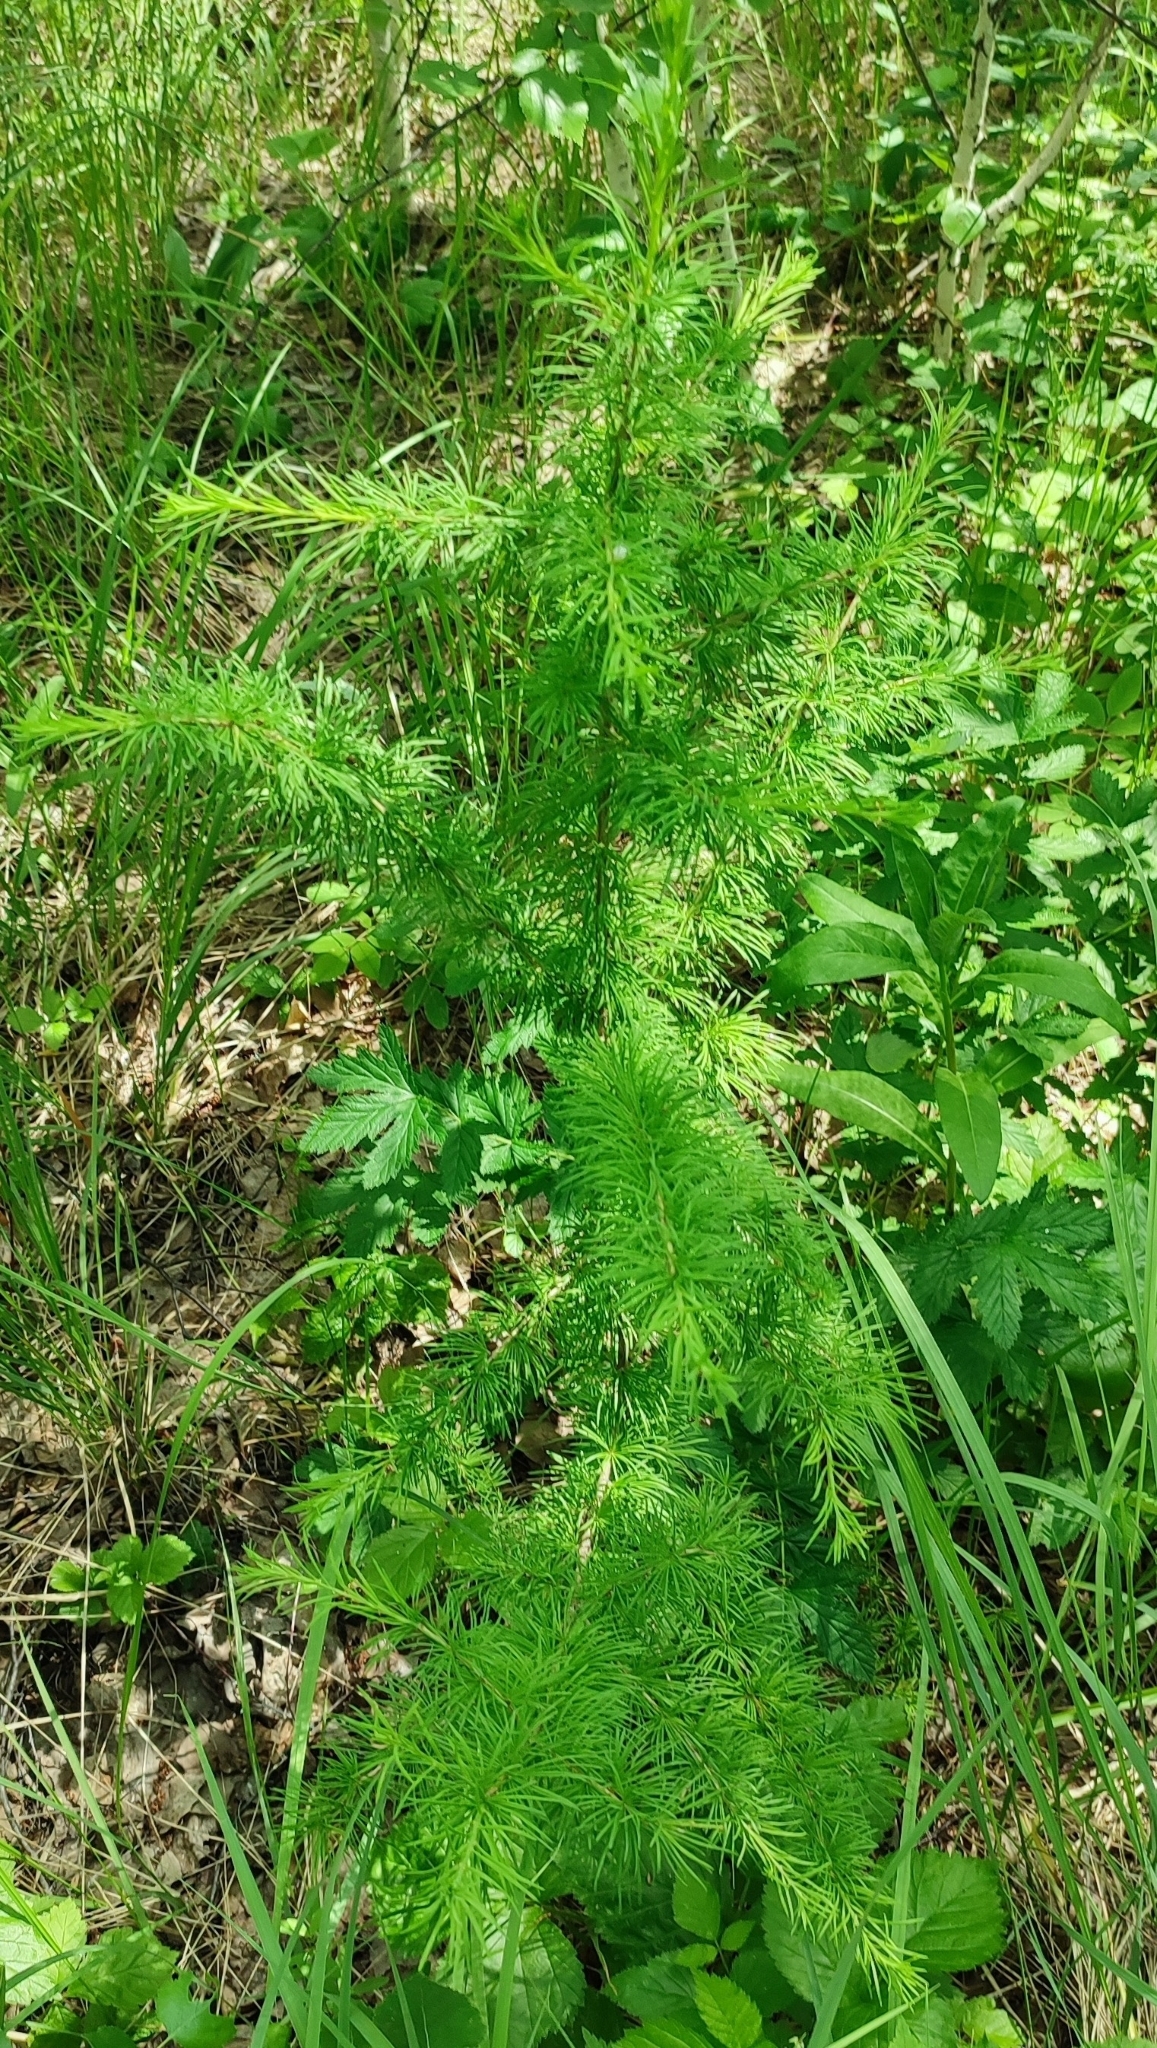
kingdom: Plantae
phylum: Tracheophyta
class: Pinopsida
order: Pinales
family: Pinaceae
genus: Larix
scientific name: Larix sibirica
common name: Siberian larch
